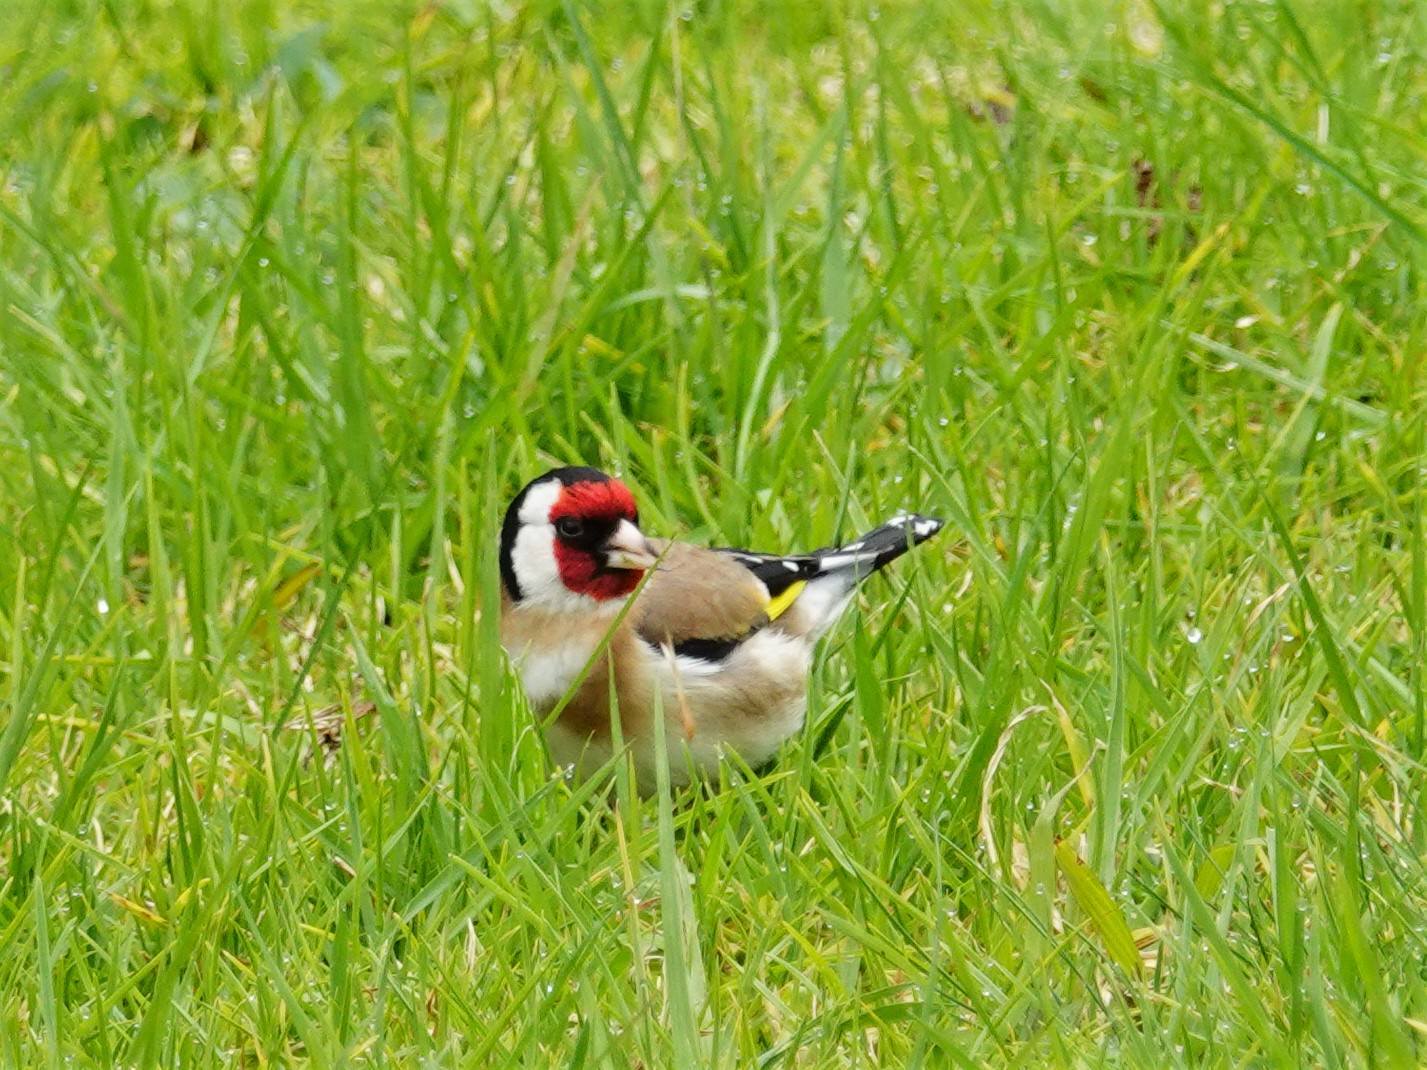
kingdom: Animalia
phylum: Chordata
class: Aves
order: Passeriformes
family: Fringillidae
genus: Carduelis
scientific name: Carduelis carduelis
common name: European goldfinch
